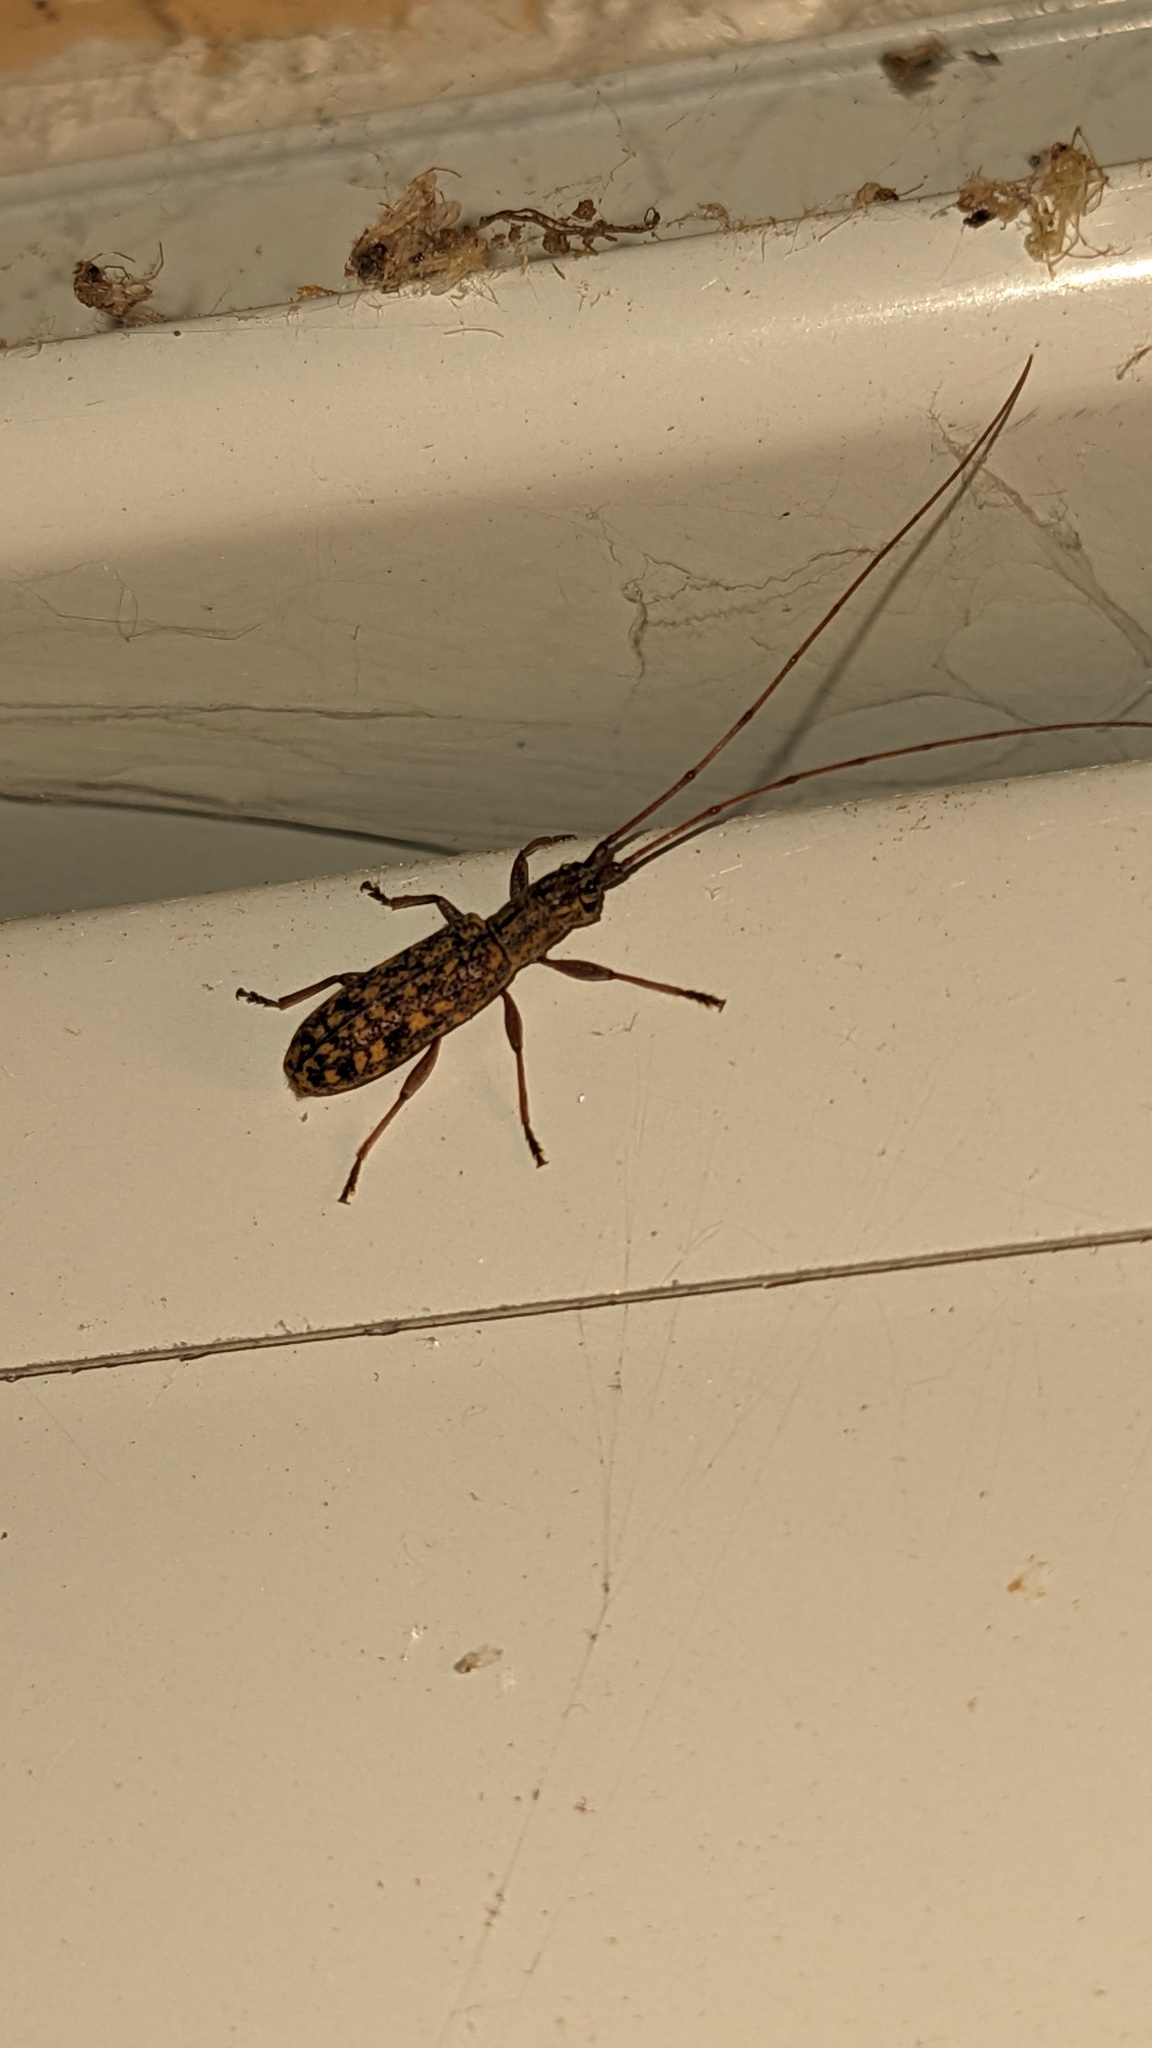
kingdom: Animalia
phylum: Arthropoda
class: Insecta
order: Coleoptera
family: Cerambycidae
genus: Dorcaschema
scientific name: Dorcaschema alternatum
